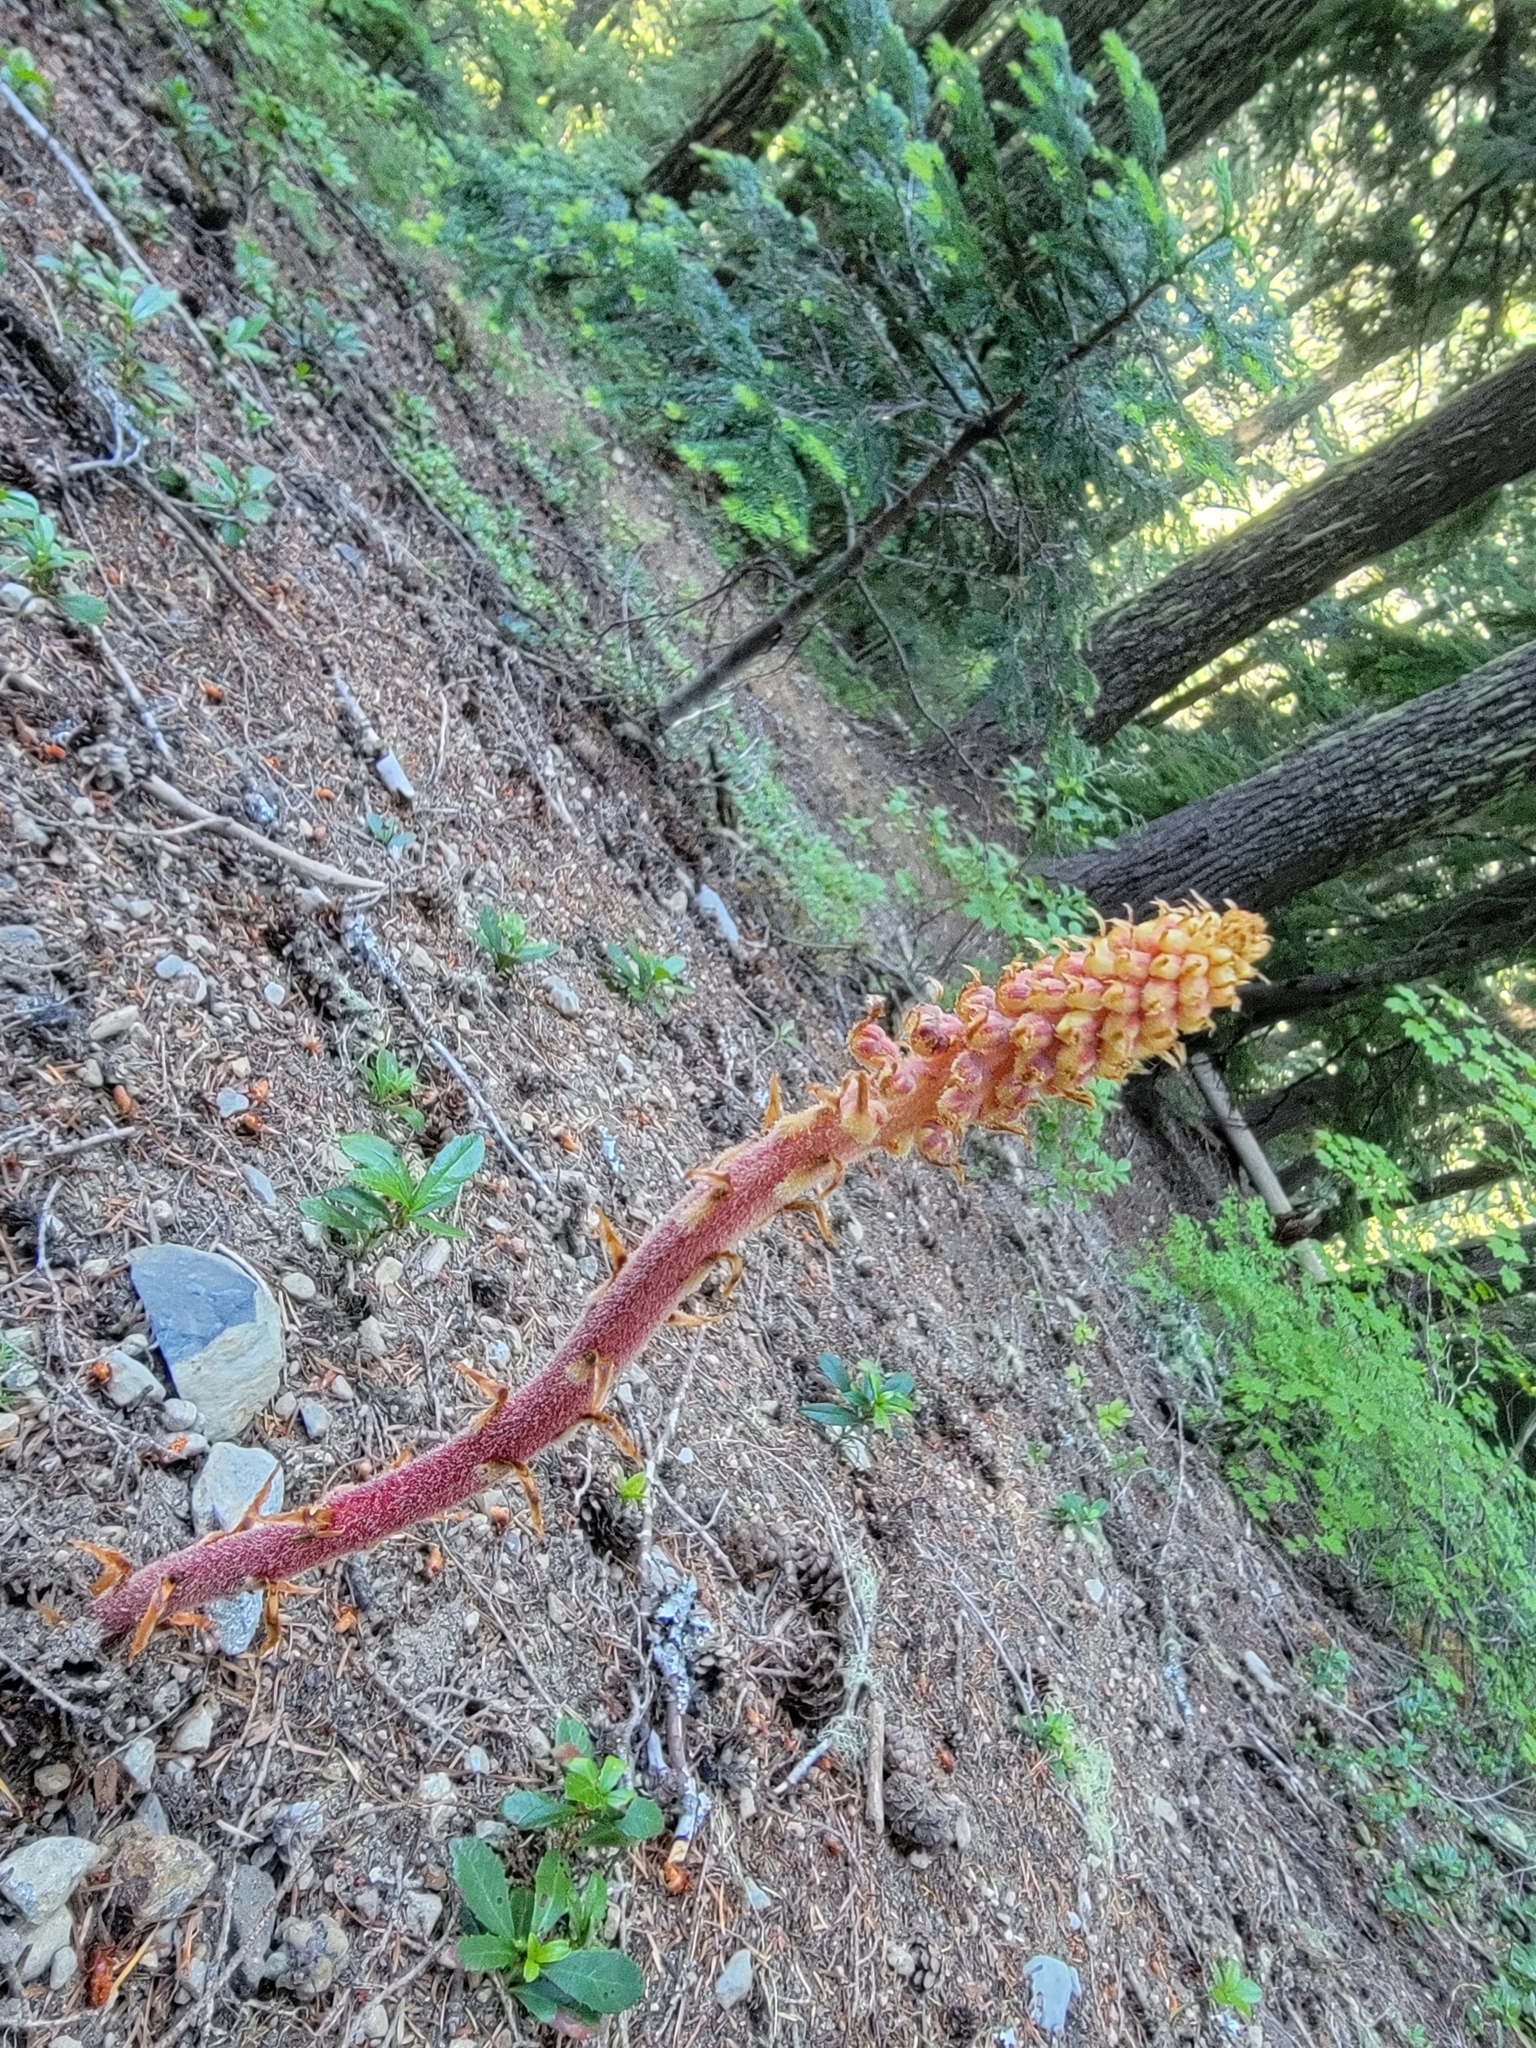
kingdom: Plantae
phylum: Tracheophyta
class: Magnoliopsida
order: Ericales
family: Ericaceae
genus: Pterospora
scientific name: Pterospora andromedea
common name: Giant bird's-nest
